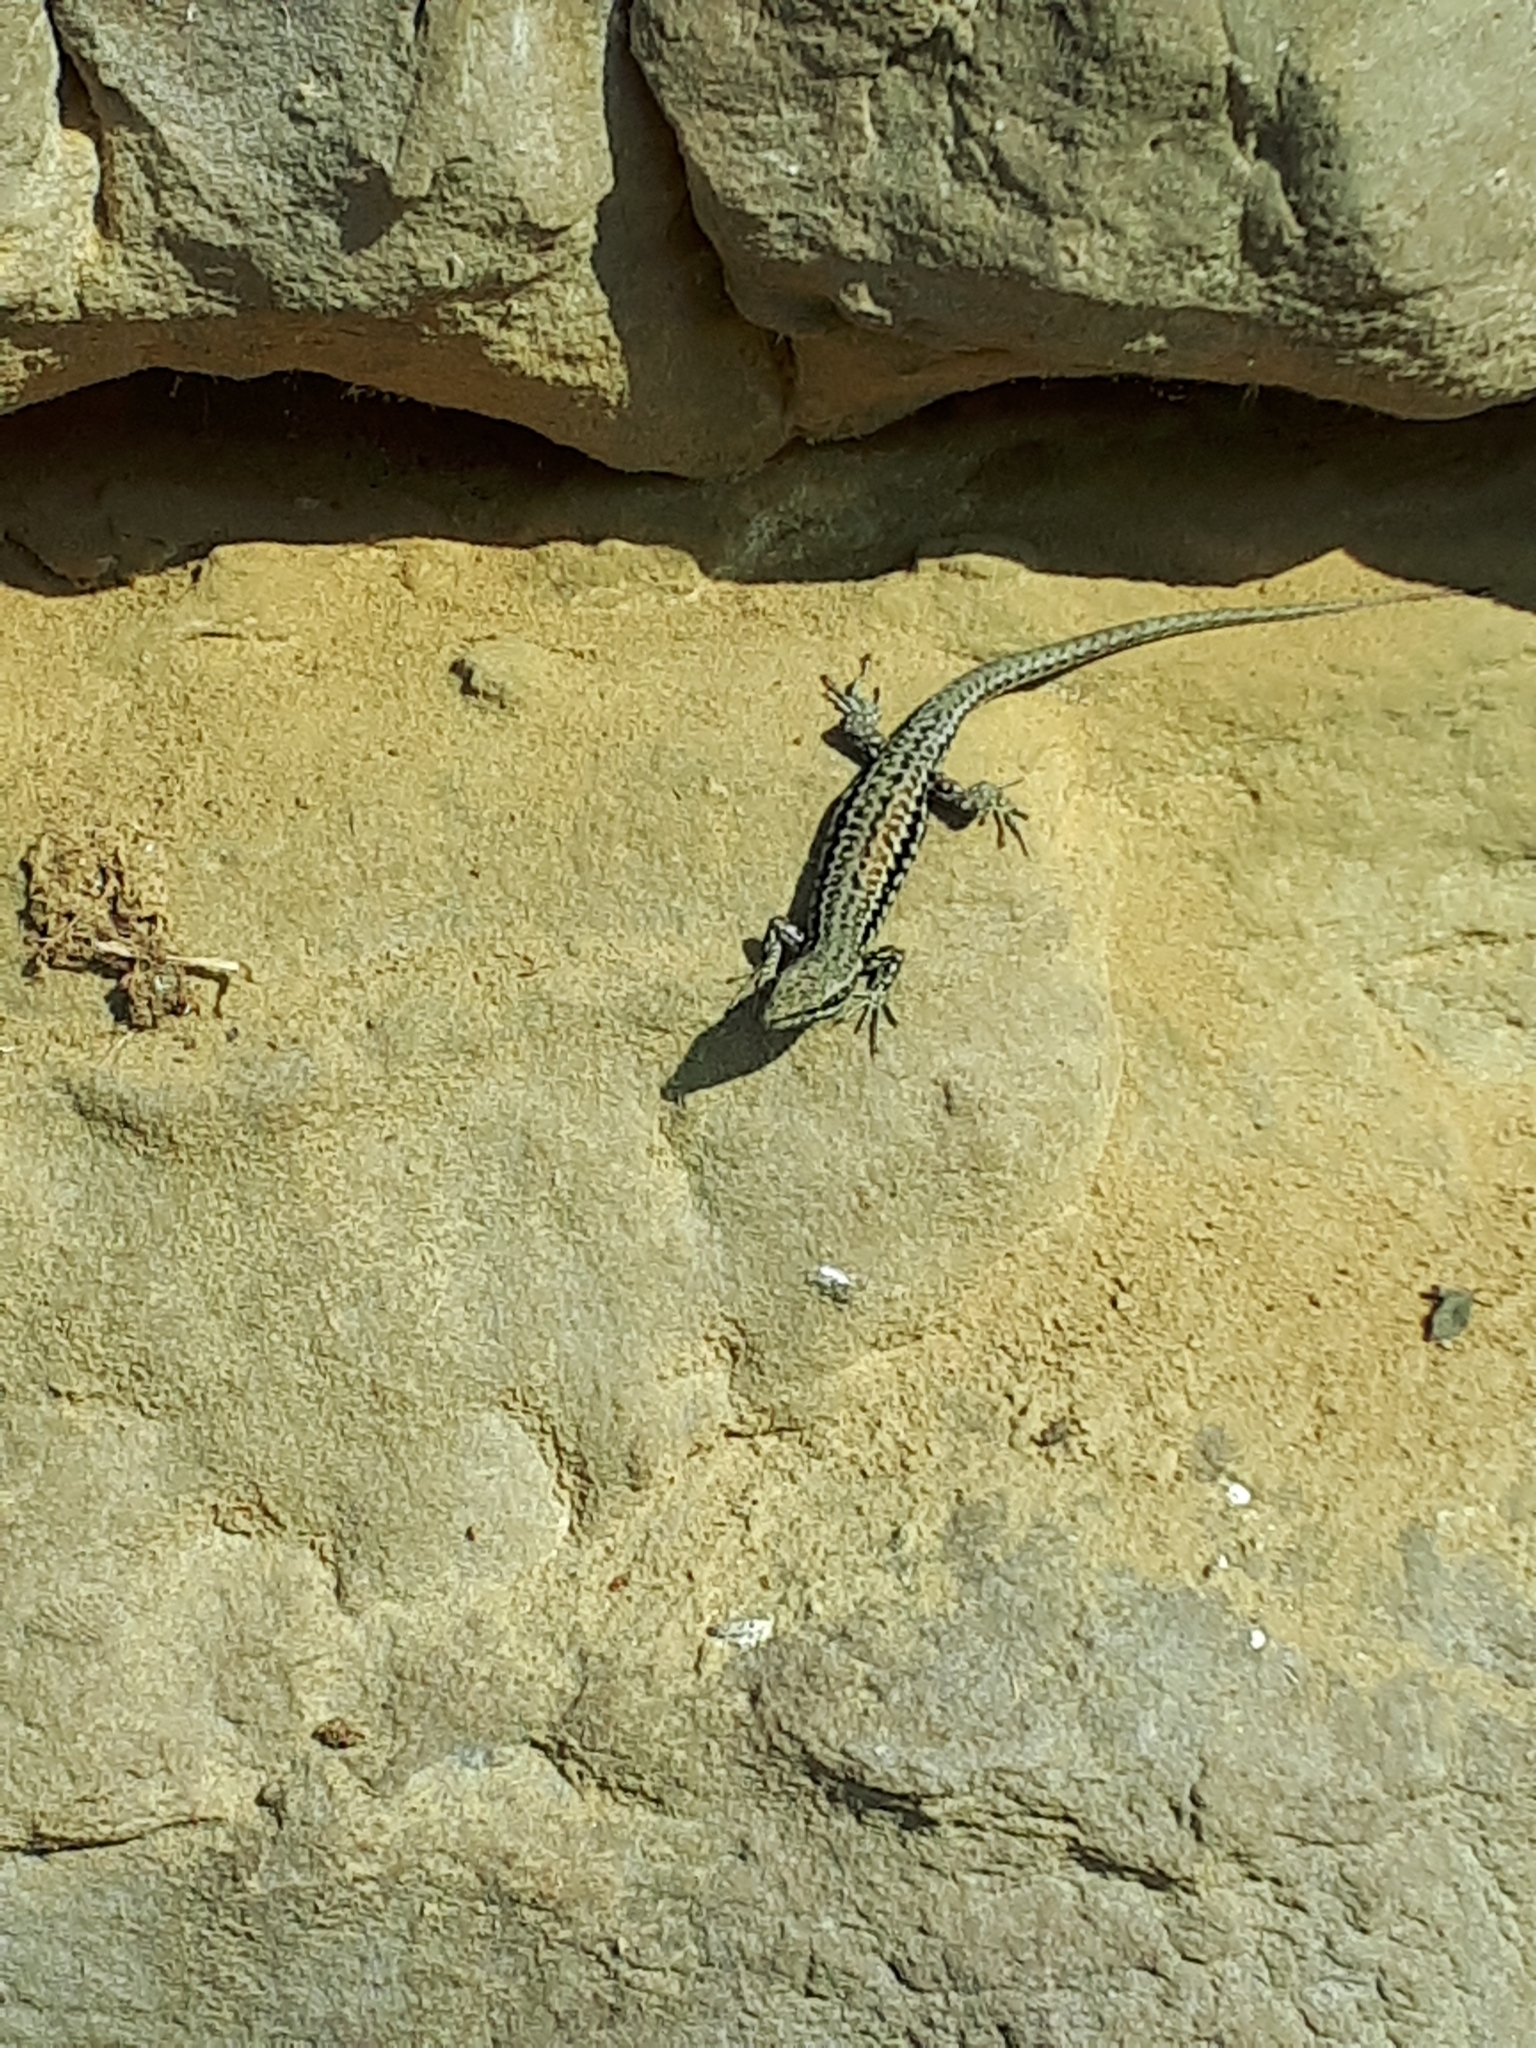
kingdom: Animalia
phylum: Chordata
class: Squamata
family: Lacertidae
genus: Podarcis
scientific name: Podarcis muralis
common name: Common wall lizard
